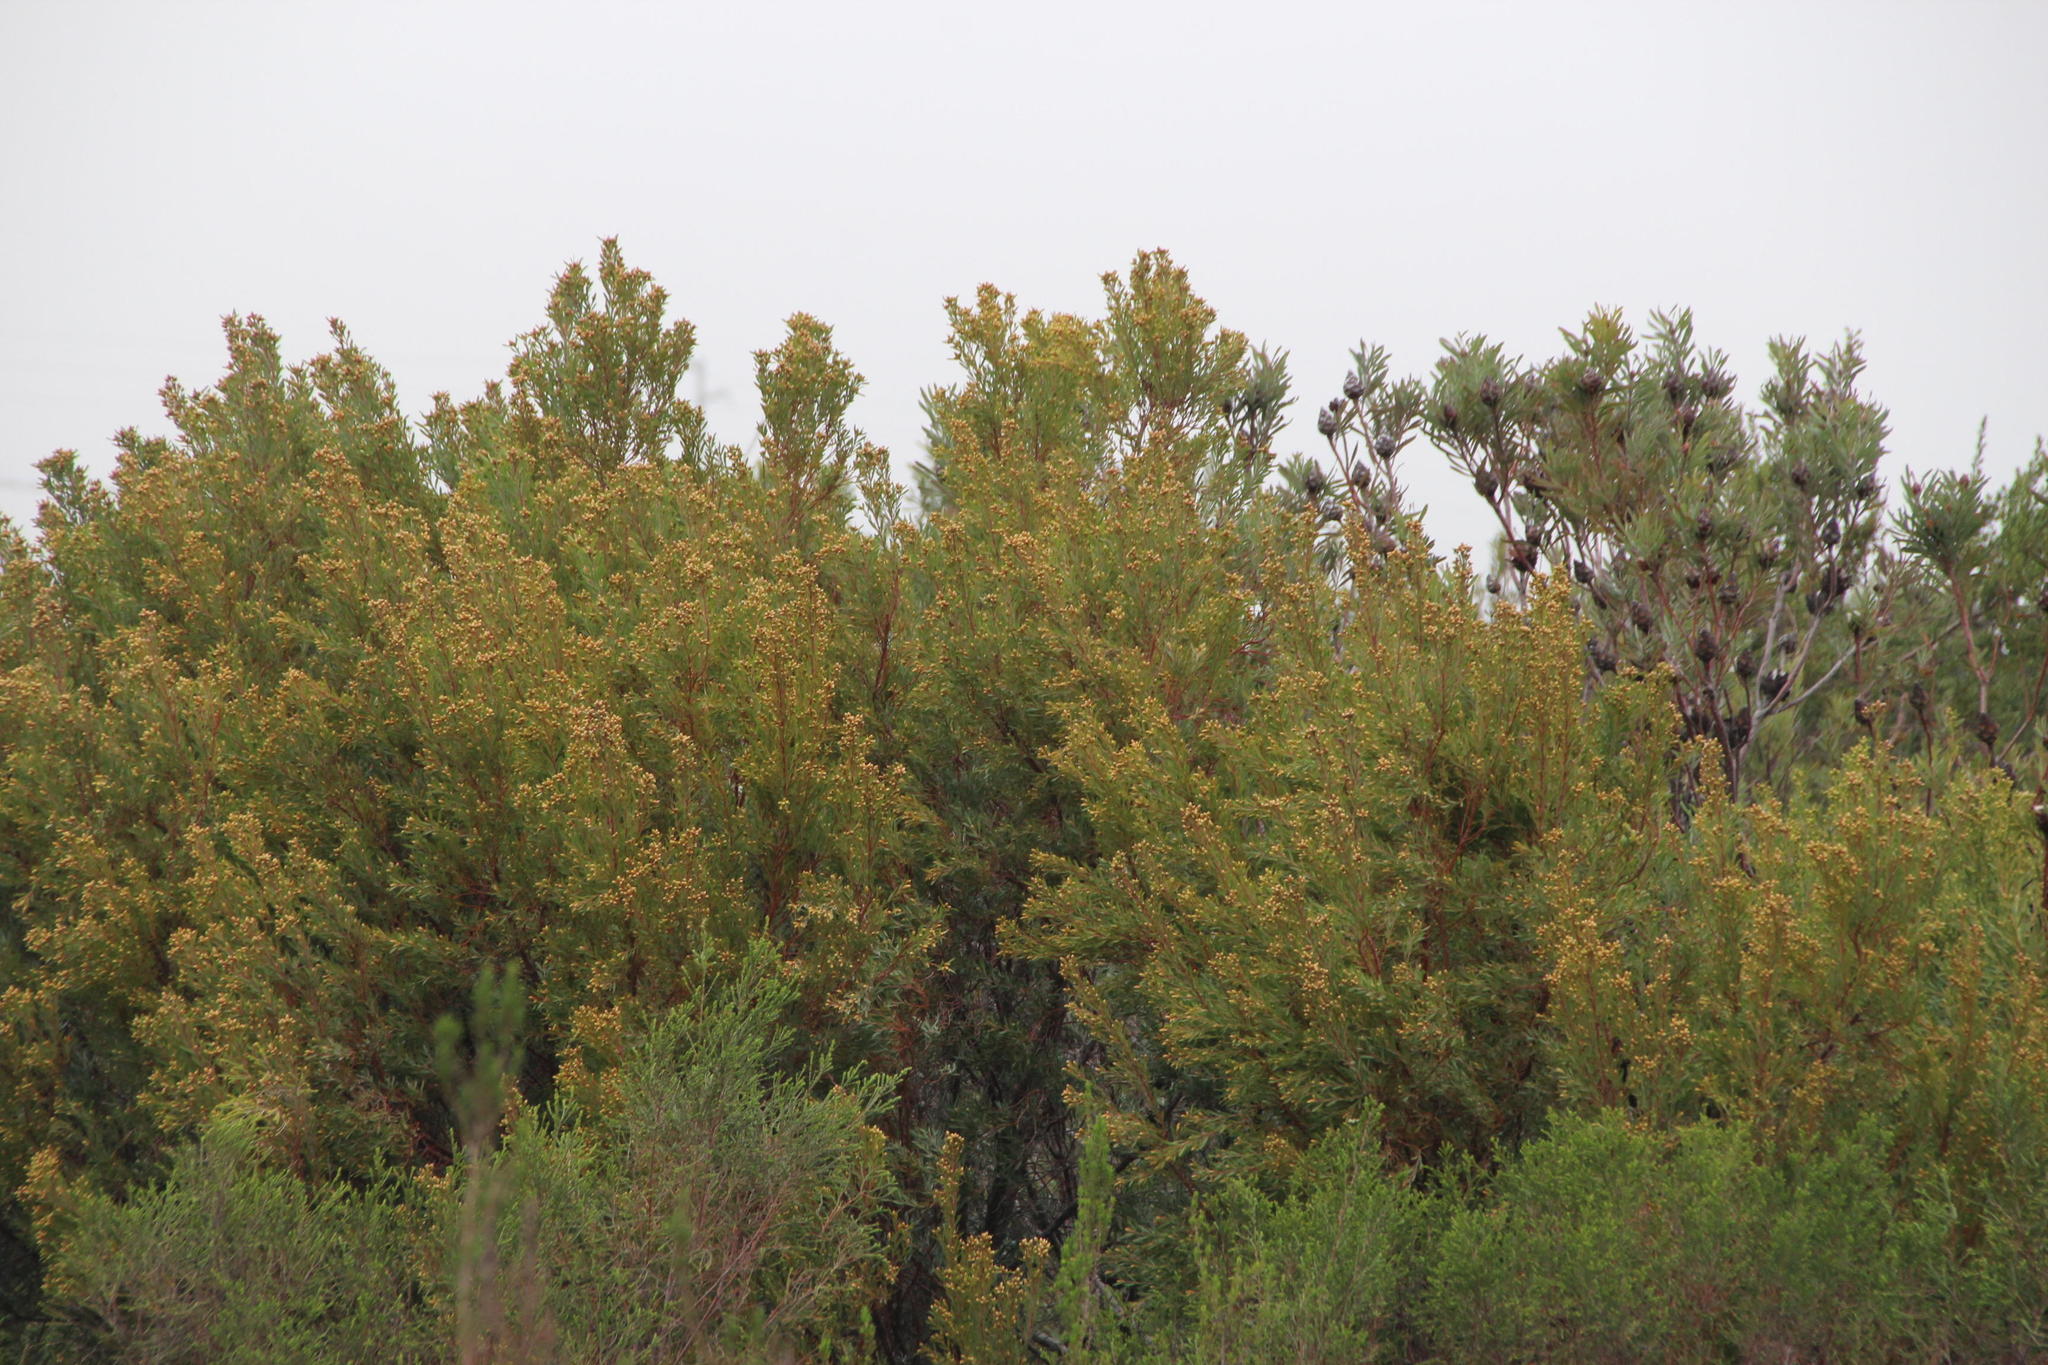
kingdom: Plantae
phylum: Tracheophyta
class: Magnoliopsida
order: Proteales
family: Proteaceae
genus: Leucadendron
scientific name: Leucadendron rubrum
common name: Spinning top
